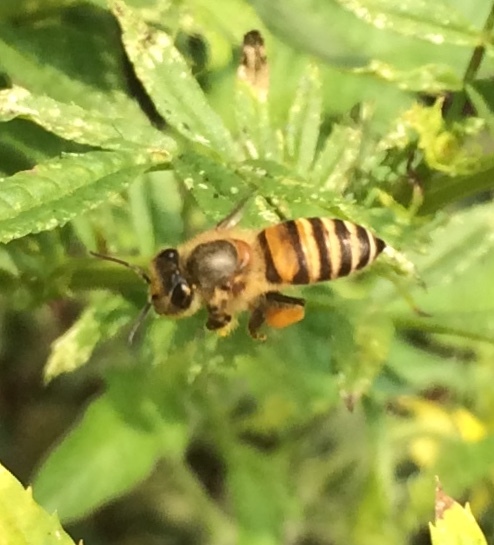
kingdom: Animalia
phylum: Arthropoda
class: Insecta
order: Hymenoptera
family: Apidae
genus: Apis
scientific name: Apis cerana
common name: Honey bee
